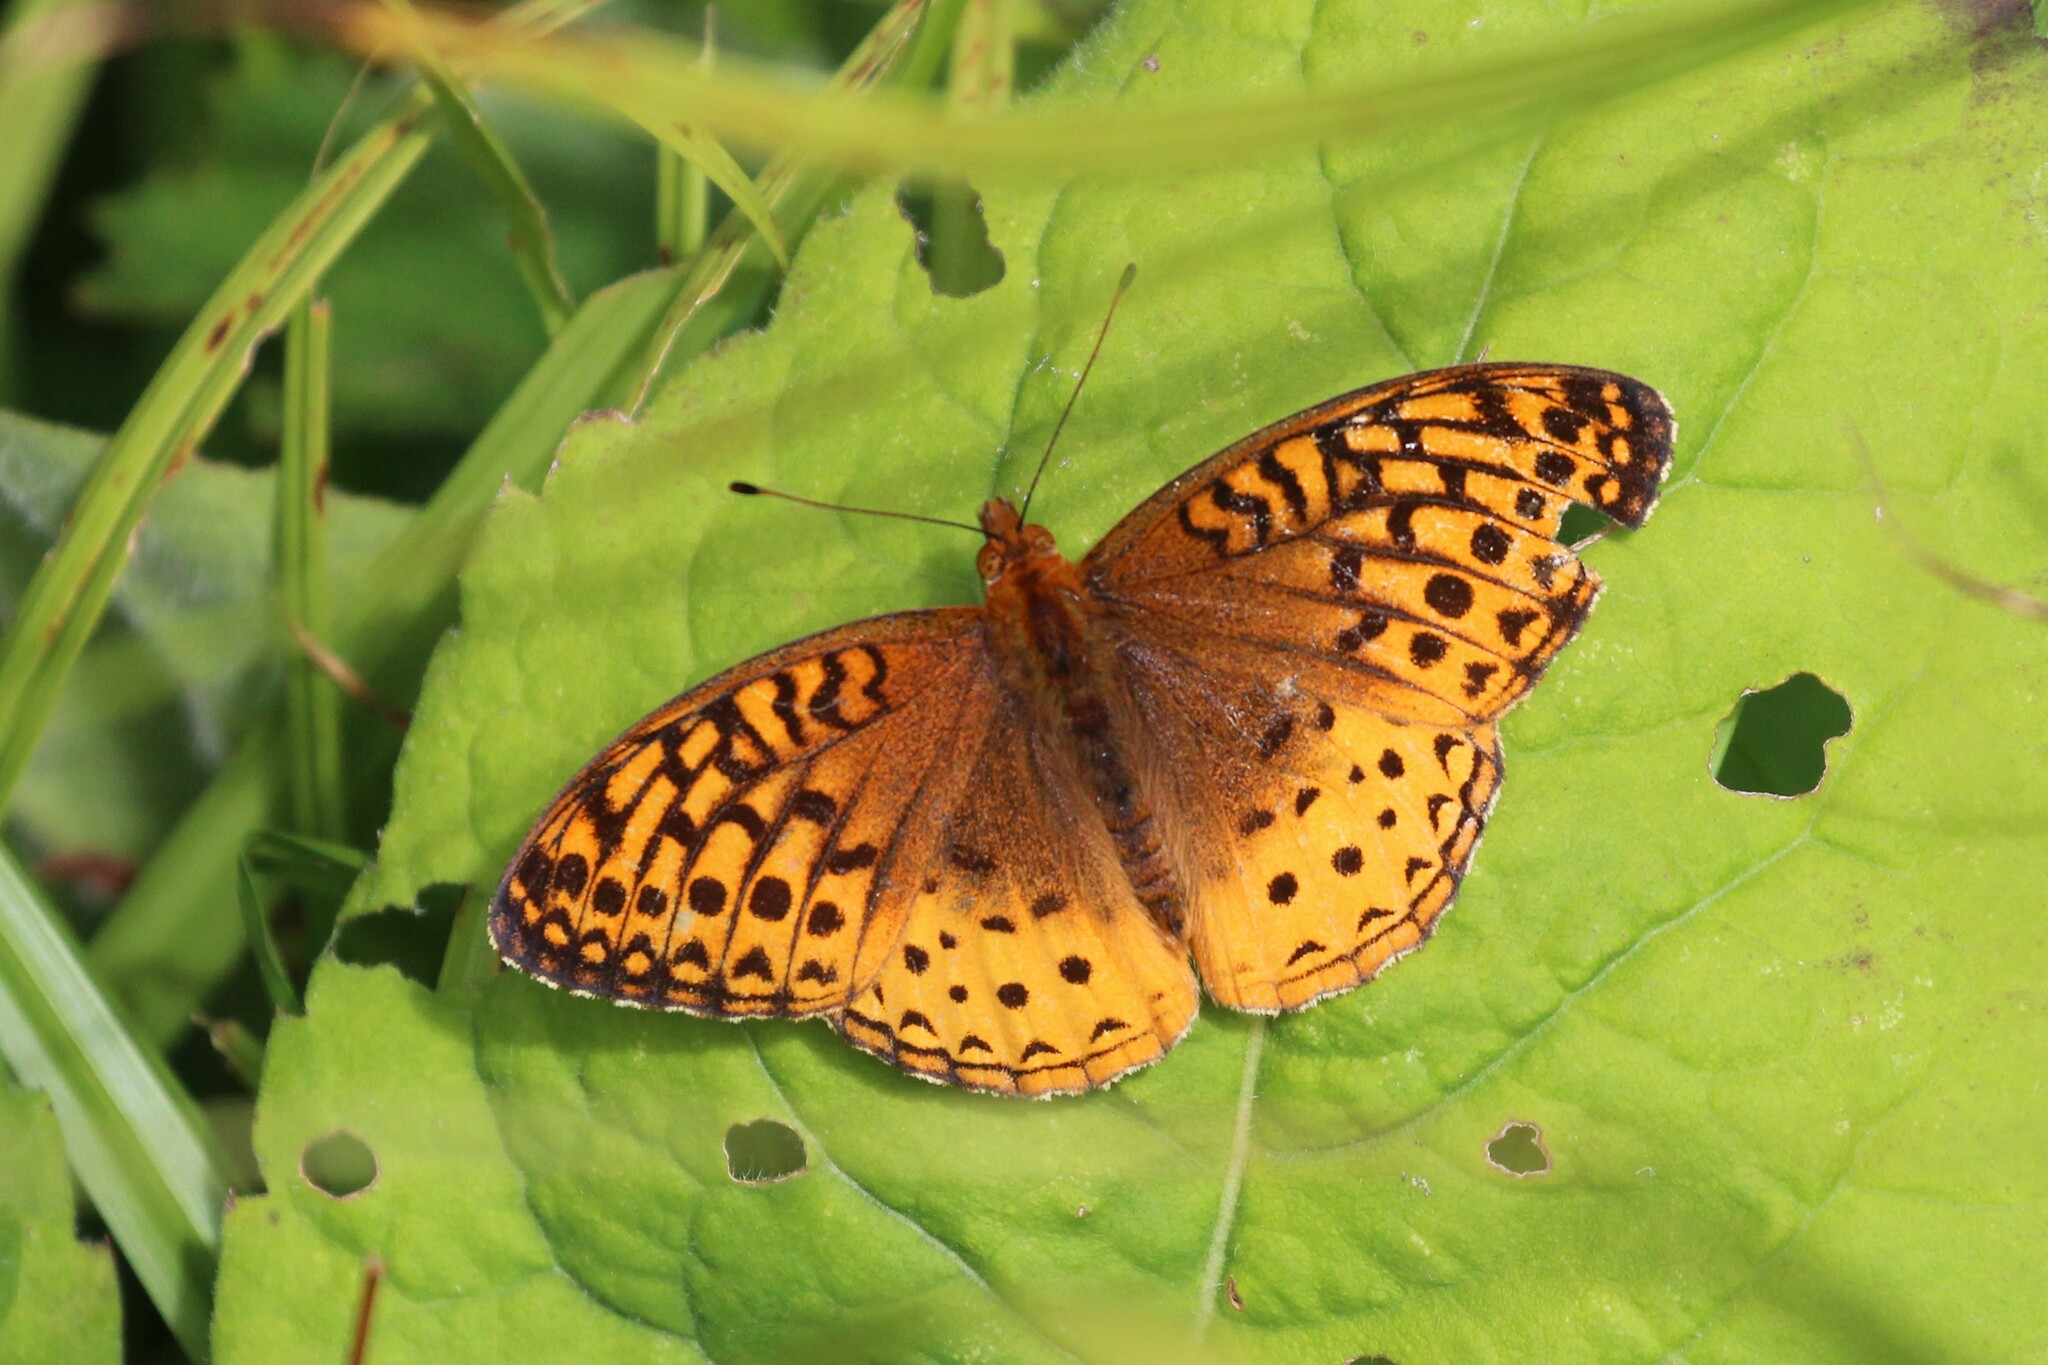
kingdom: Animalia
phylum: Arthropoda
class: Insecta
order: Lepidoptera
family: Nymphalidae
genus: Speyeria
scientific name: Speyeria cybele
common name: Great spangled fritillary
